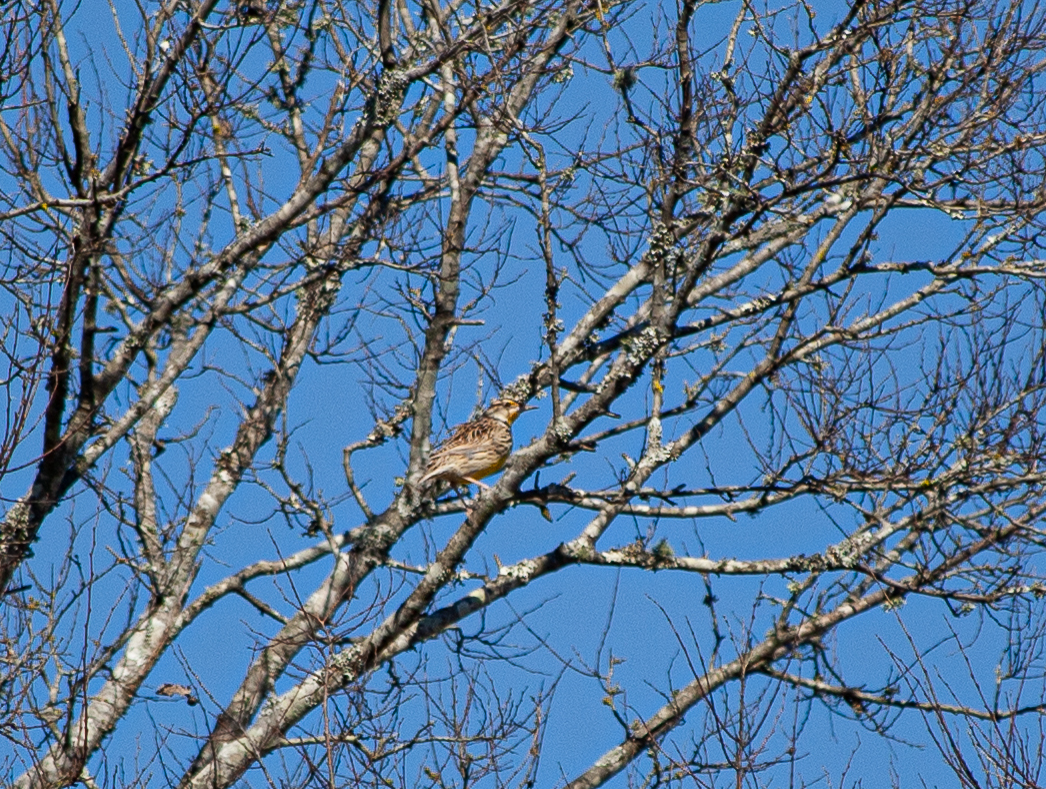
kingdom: Animalia
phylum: Chordata
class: Aves
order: Passeriformes
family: Icteridae
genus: Sturnella
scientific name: Sturnella magna
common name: Eastern meadowlark
